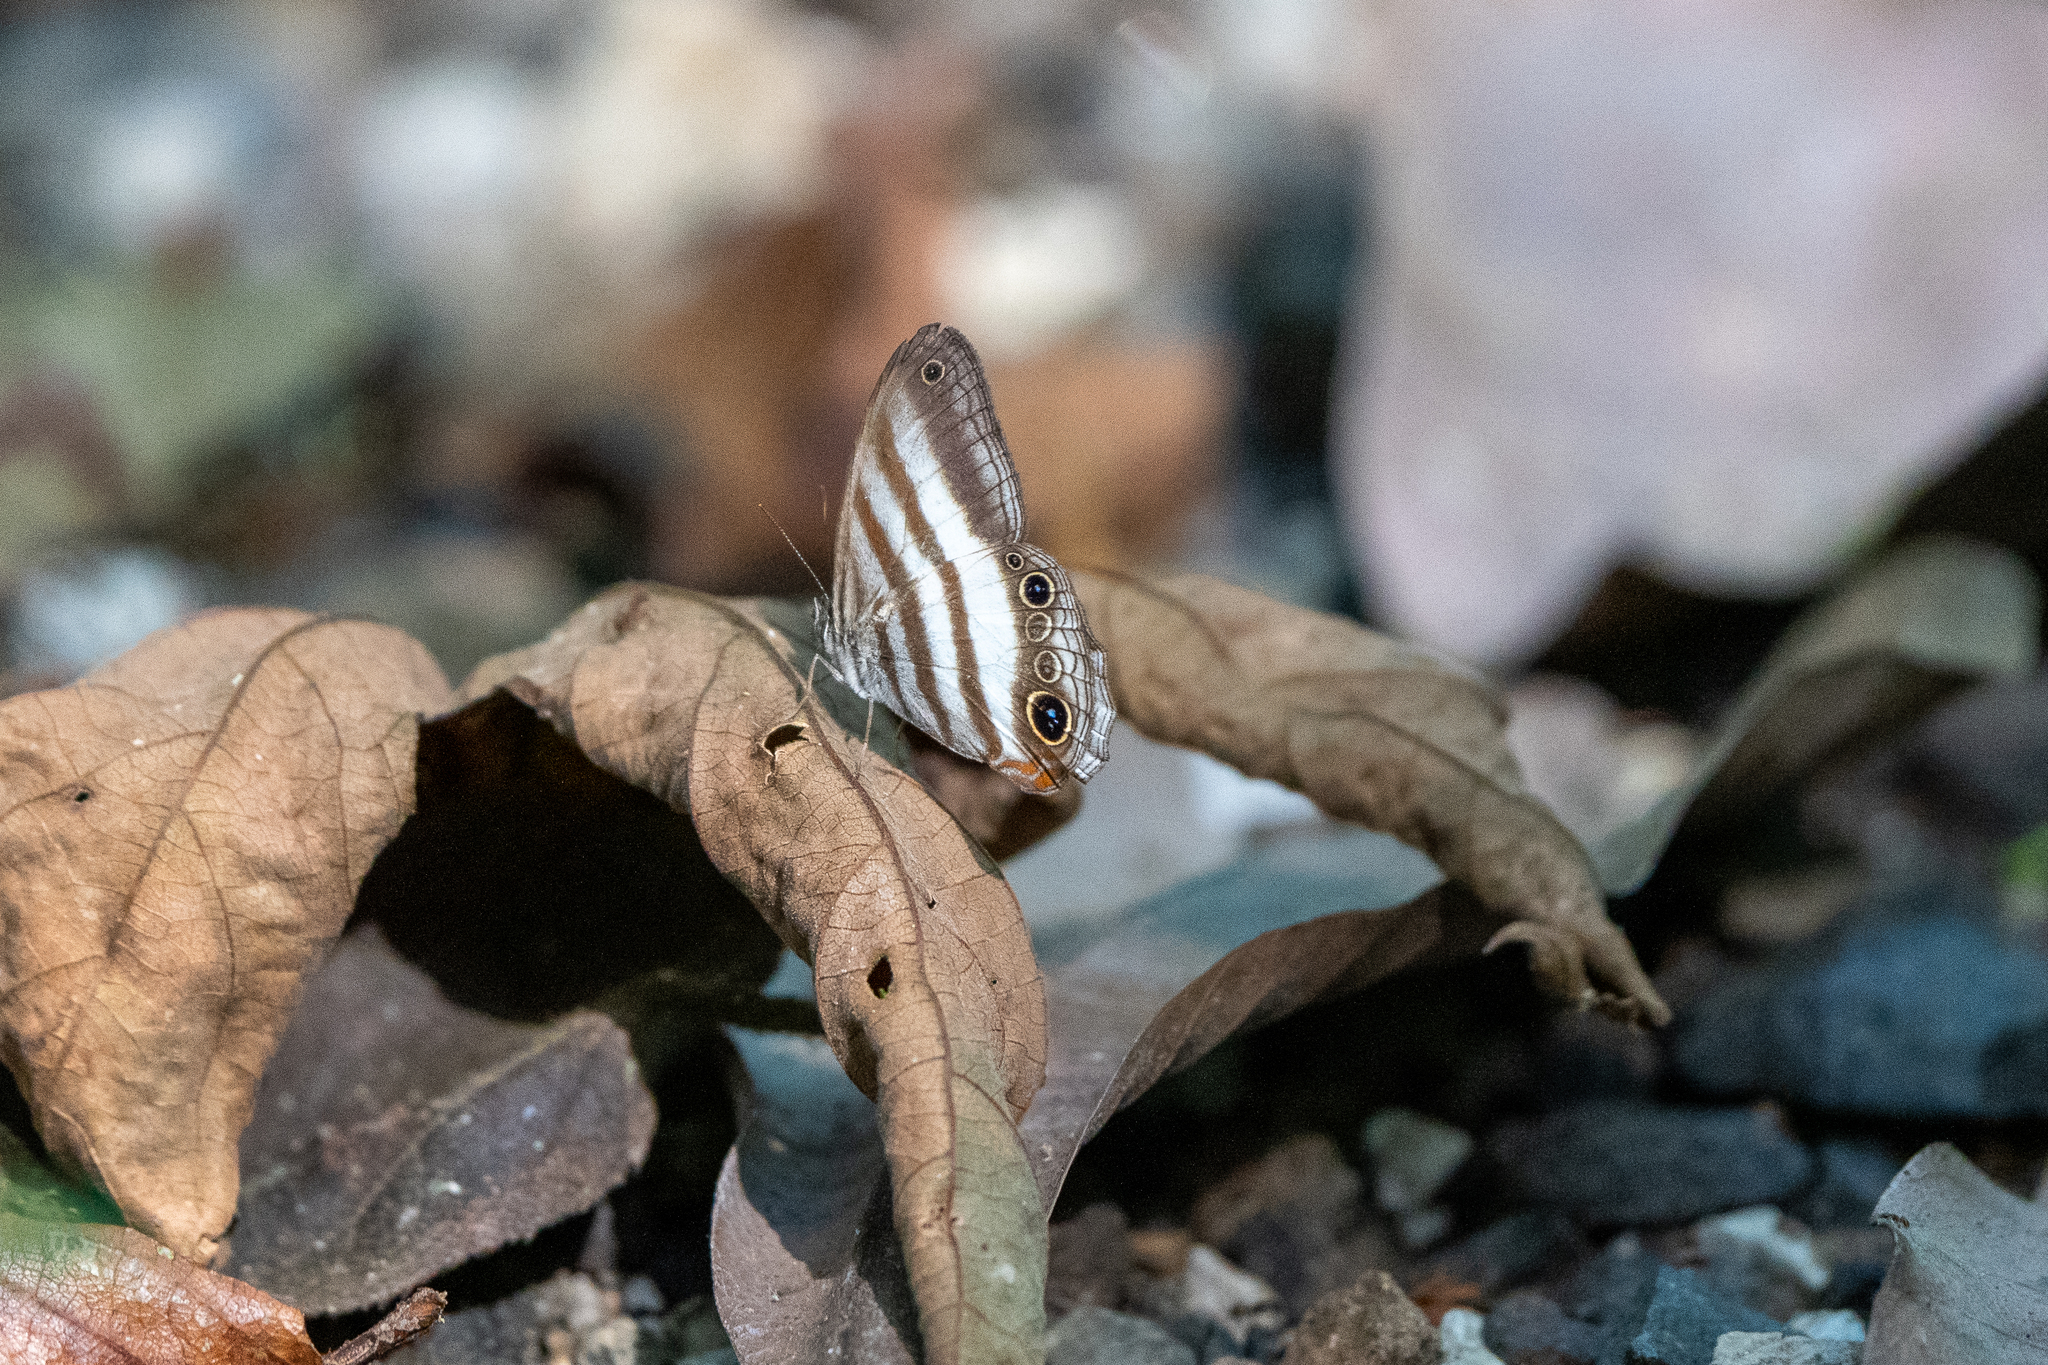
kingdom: Animalia
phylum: Arthropoda
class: Insecta
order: Lepidoptera
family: Nymphalidae
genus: Pareuptychia
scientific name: Pareuptychia hesione
